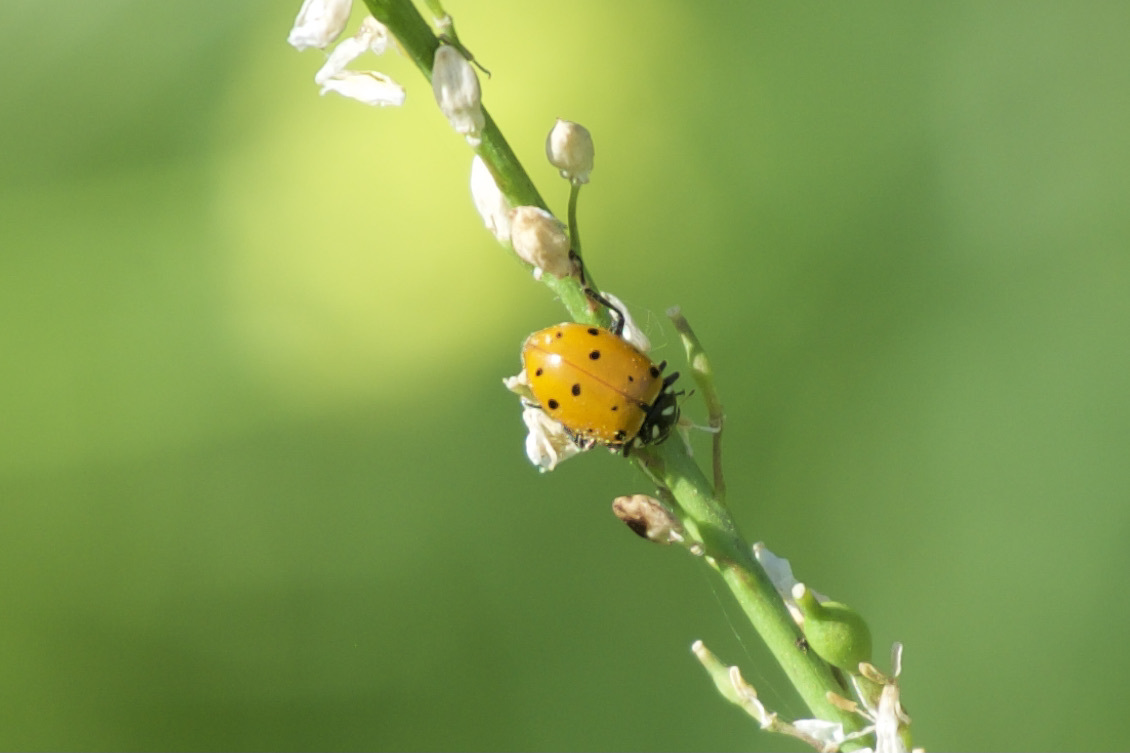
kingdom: Animalia
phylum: Arthropoda
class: Insecta
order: Coleoptera
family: Coccinellidae
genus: Hippodamia
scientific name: Hippodamia convergens
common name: Convergent lady beetle
